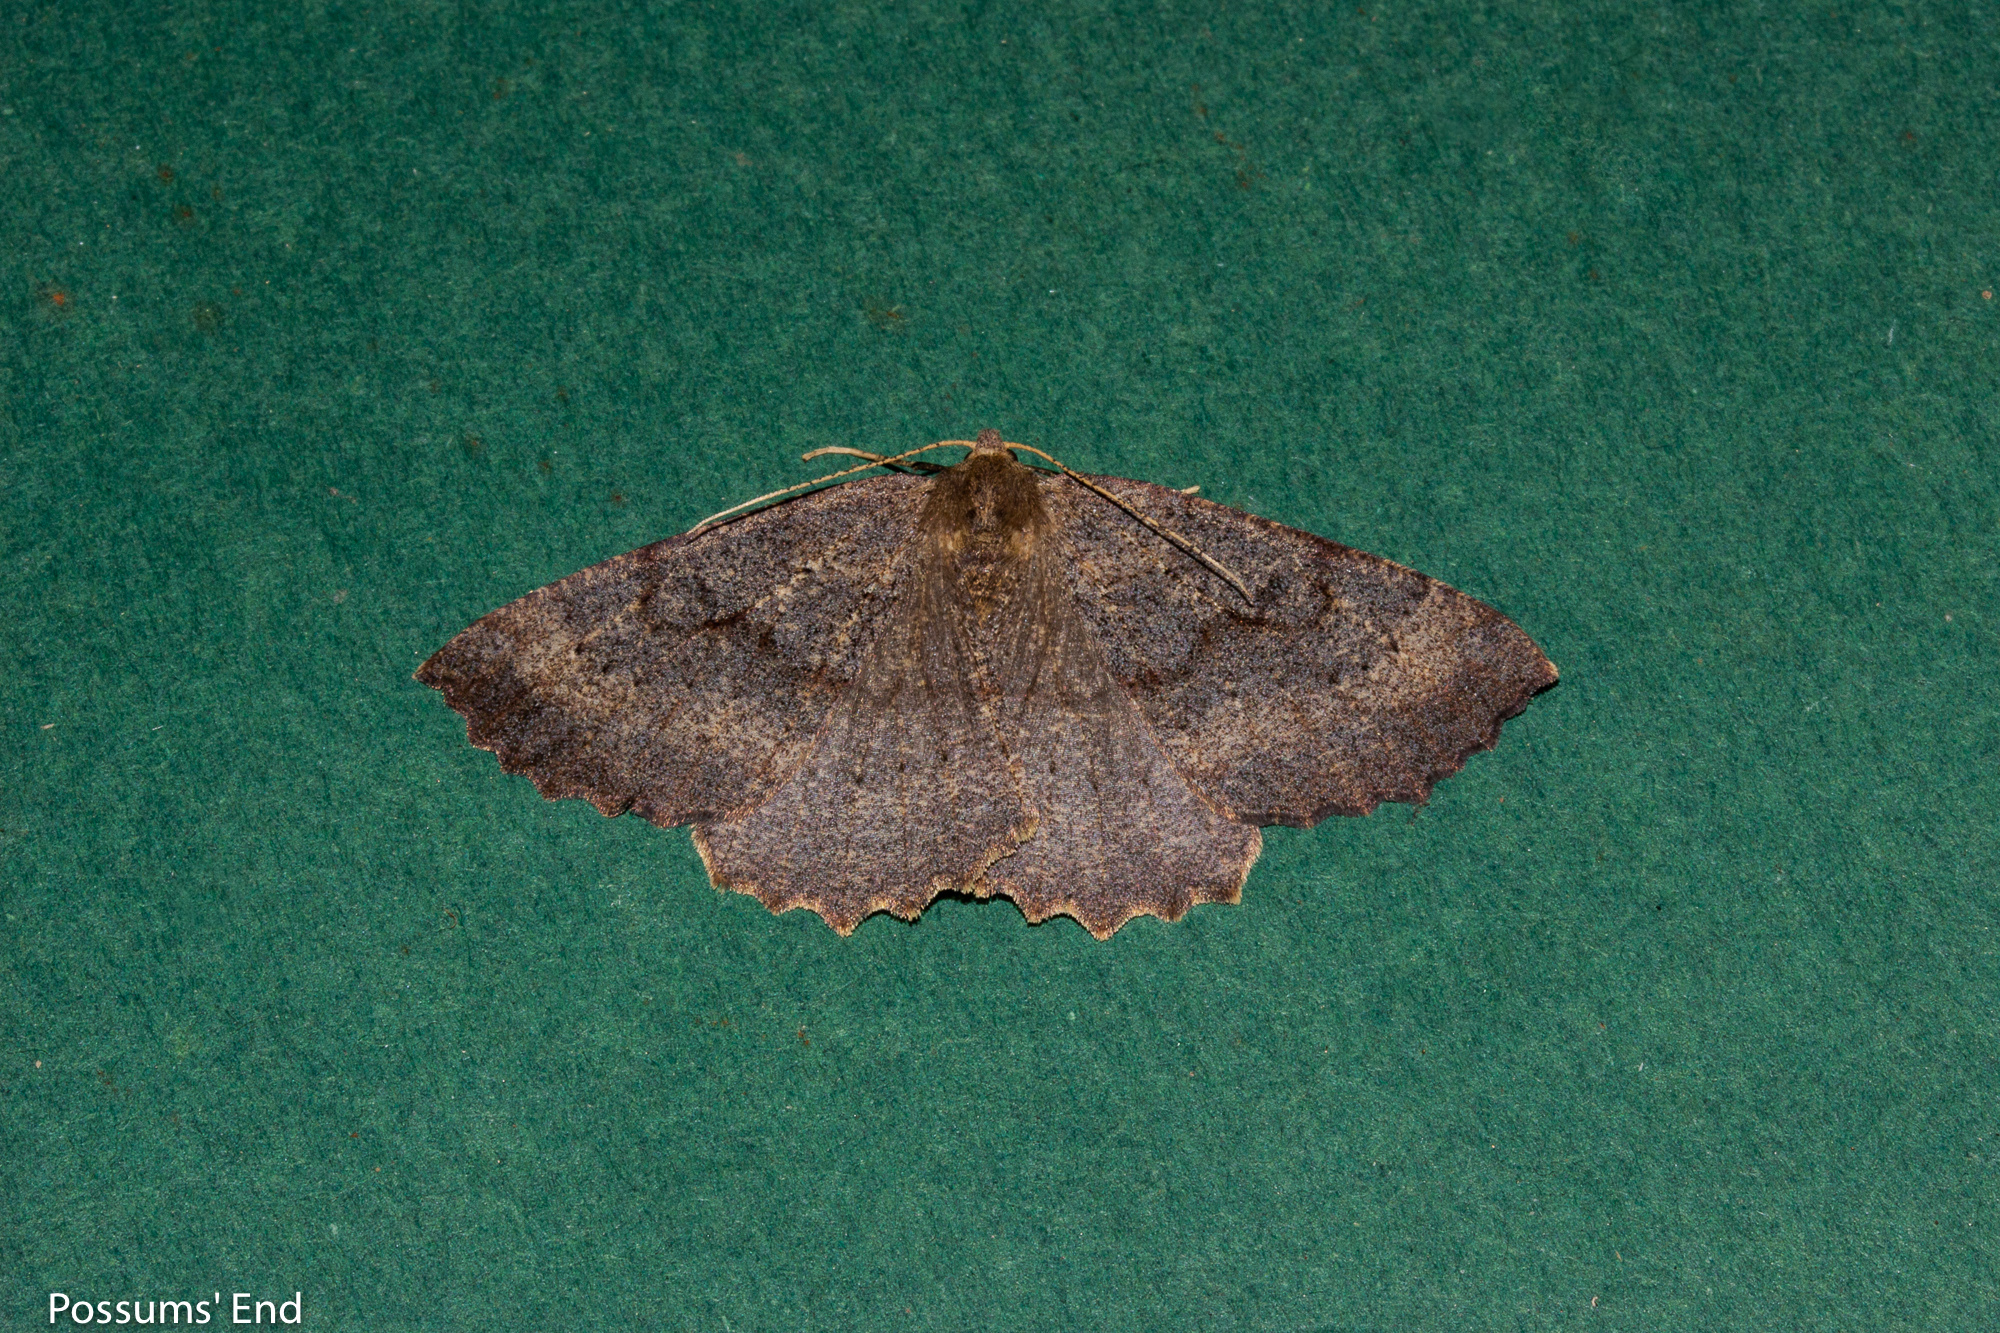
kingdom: Animalia
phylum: Arthropoda
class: Insecta
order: Lepidoptera
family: Geometridae
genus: Cleora
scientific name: Cleora scriptaria
